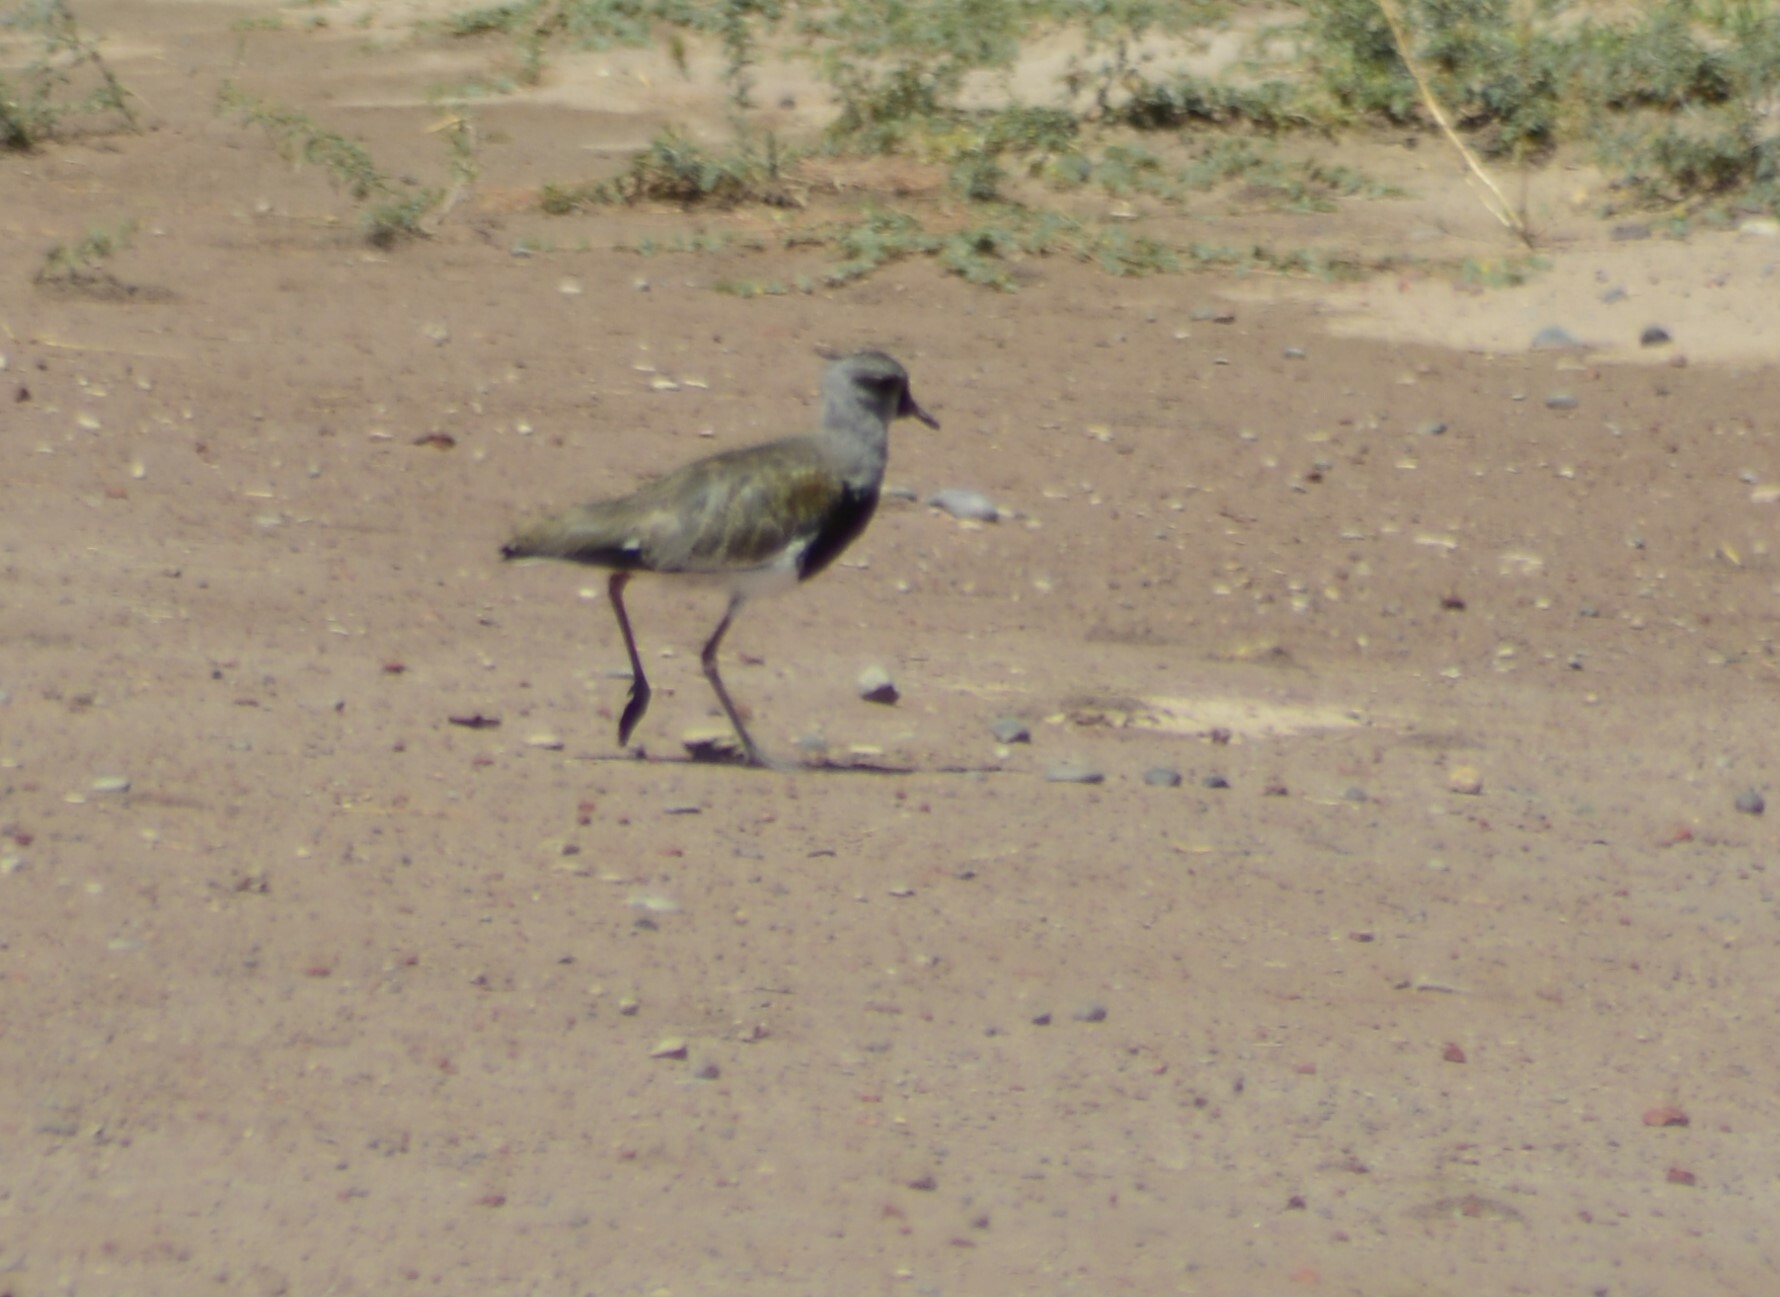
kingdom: Animalia
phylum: Chordata
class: Aves
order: Charadriiformes
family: Charadriidae
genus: Vanellus
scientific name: Vanellus chilensis
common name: Southern lapwing
